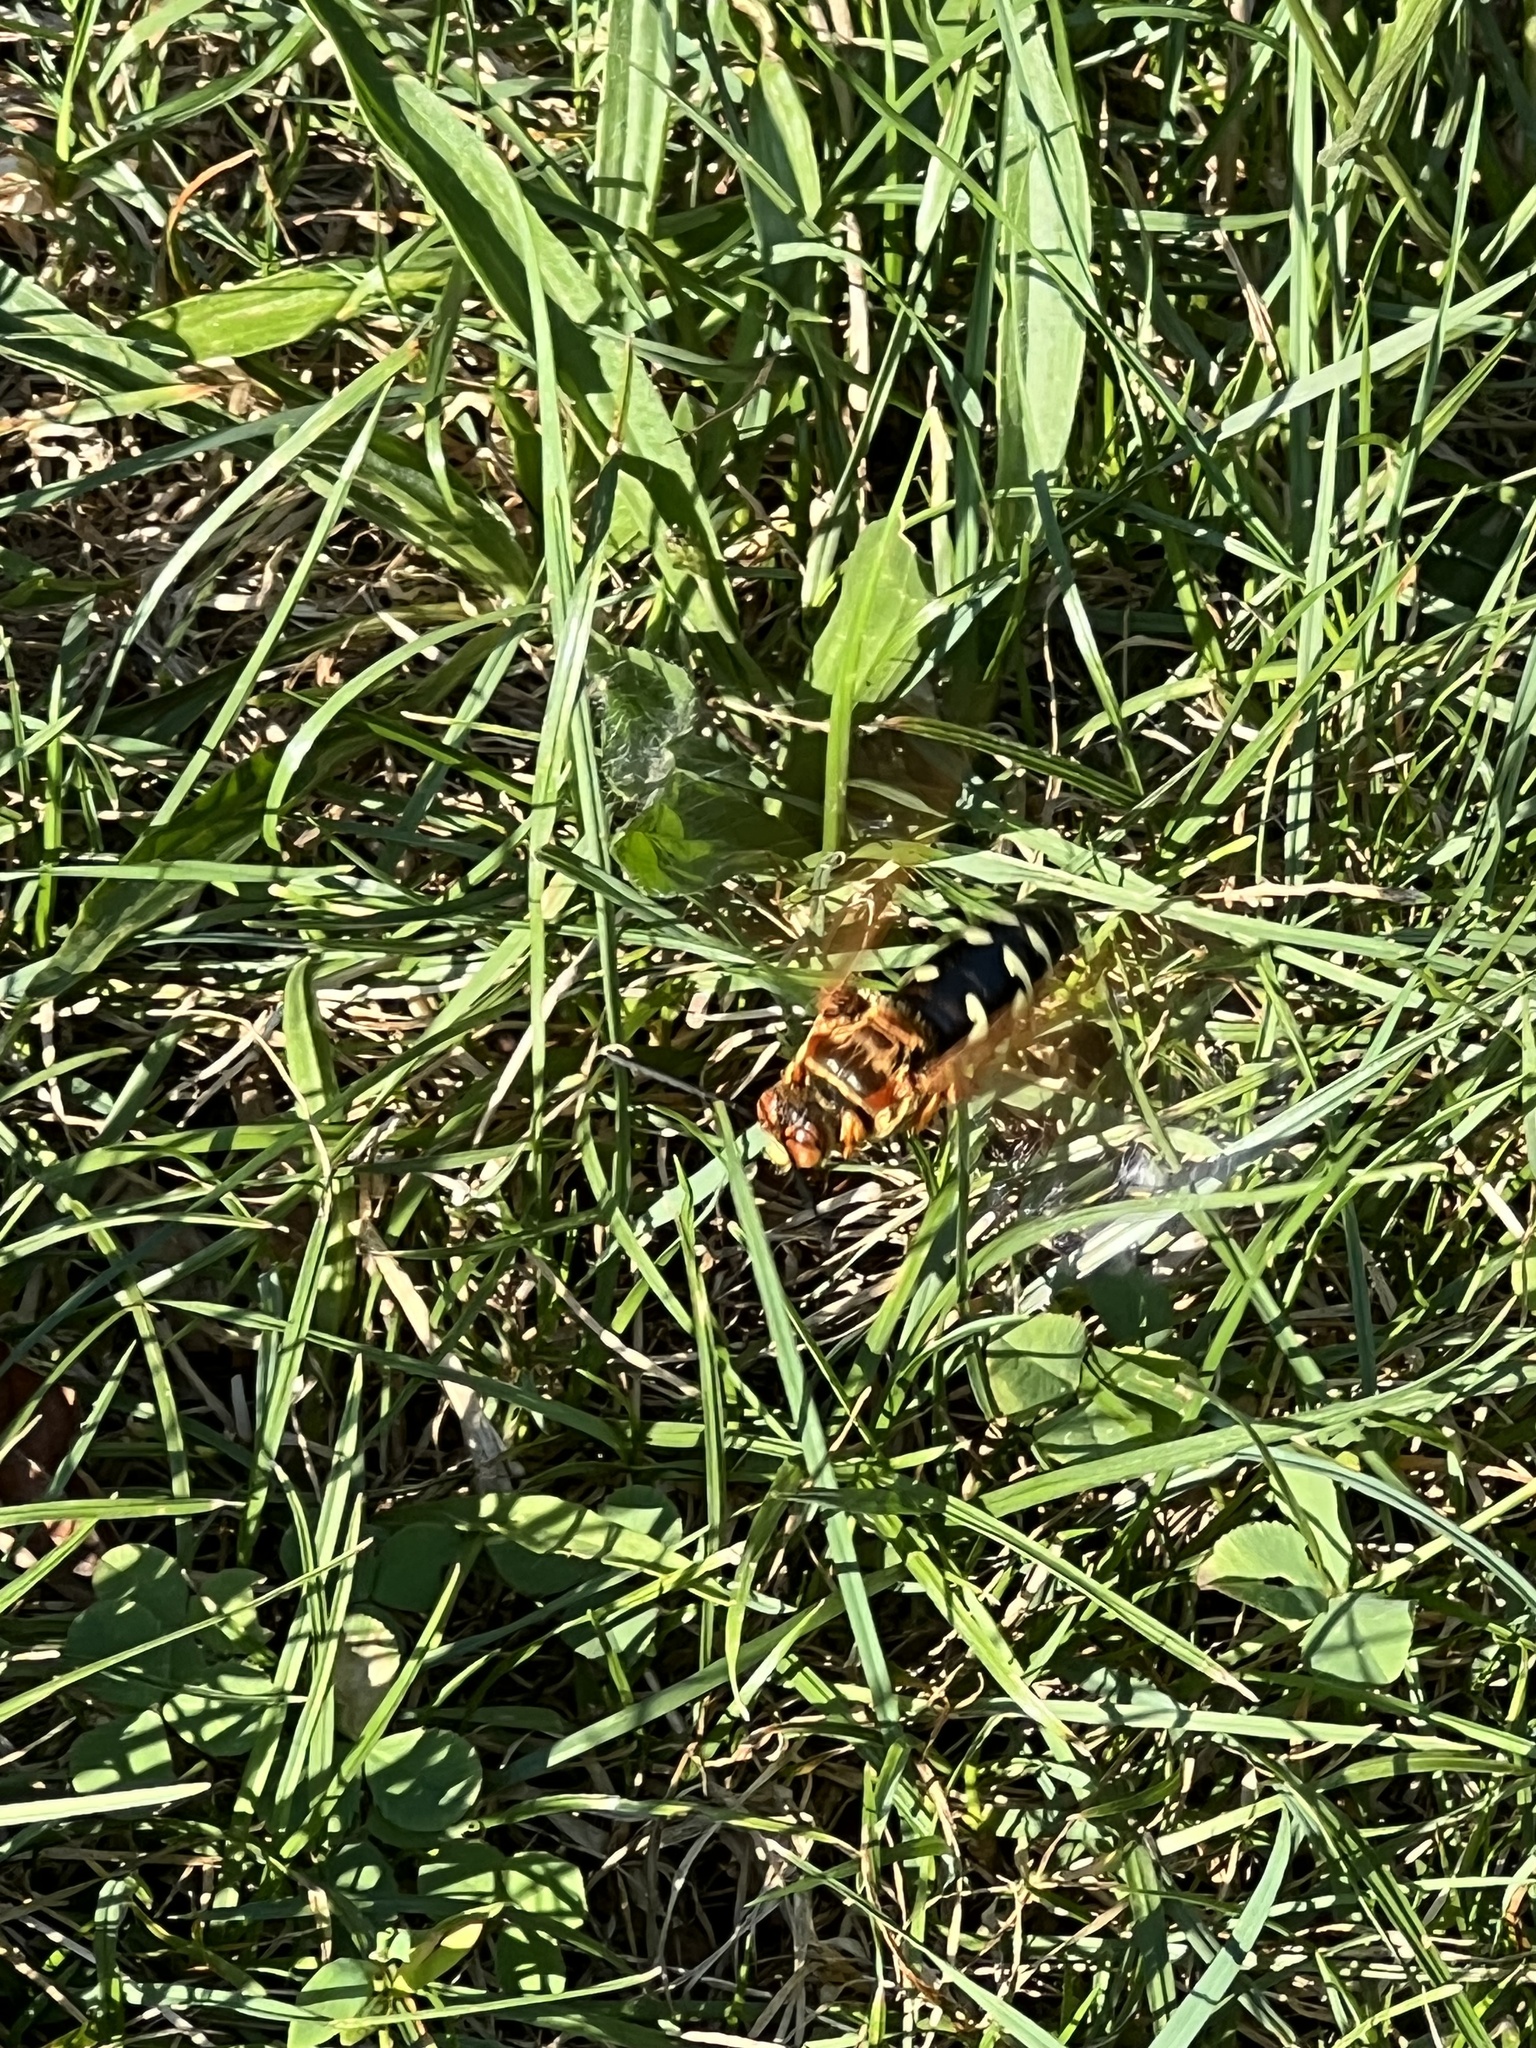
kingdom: Animalia
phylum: Arthropoda
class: Insecta
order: Hymenoptera
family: Crabronidae
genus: Sphecius
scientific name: Sphecius speciosus
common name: Cicada killer
